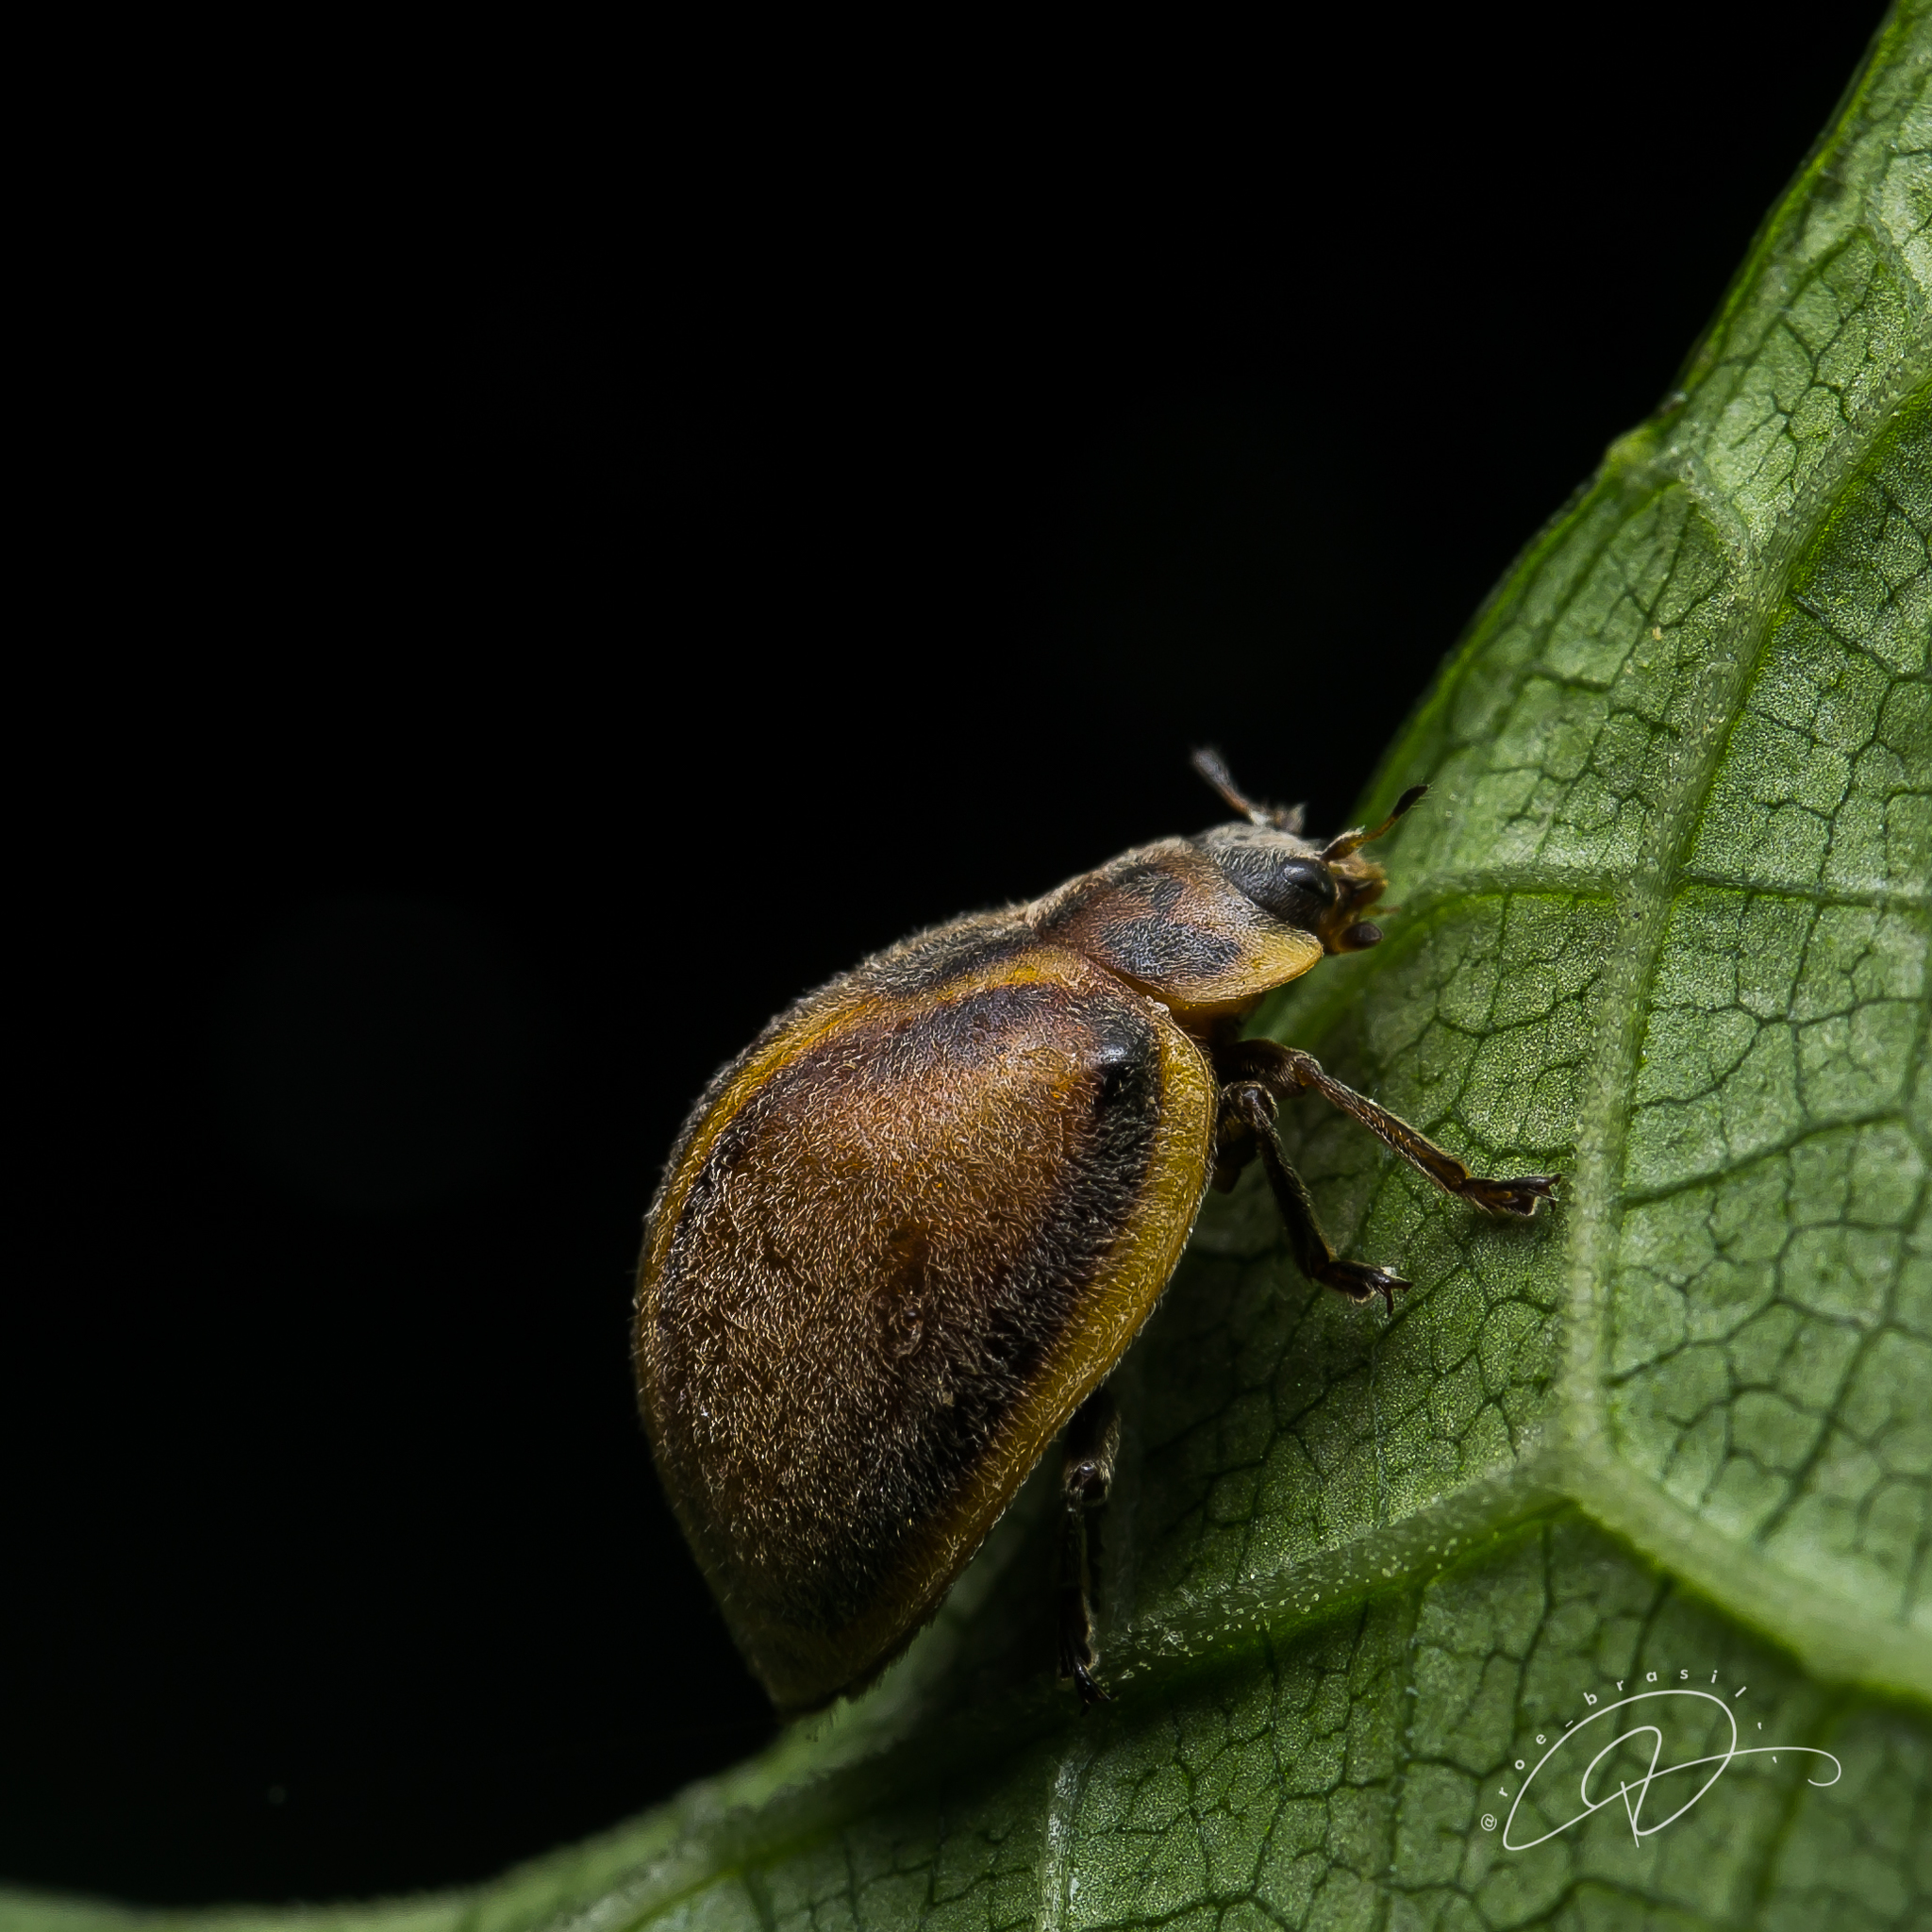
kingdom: Animalia
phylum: Arthropoda
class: Insecta
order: Coleoptera
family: Coccinellidae
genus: Epilachna
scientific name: Epilachna
